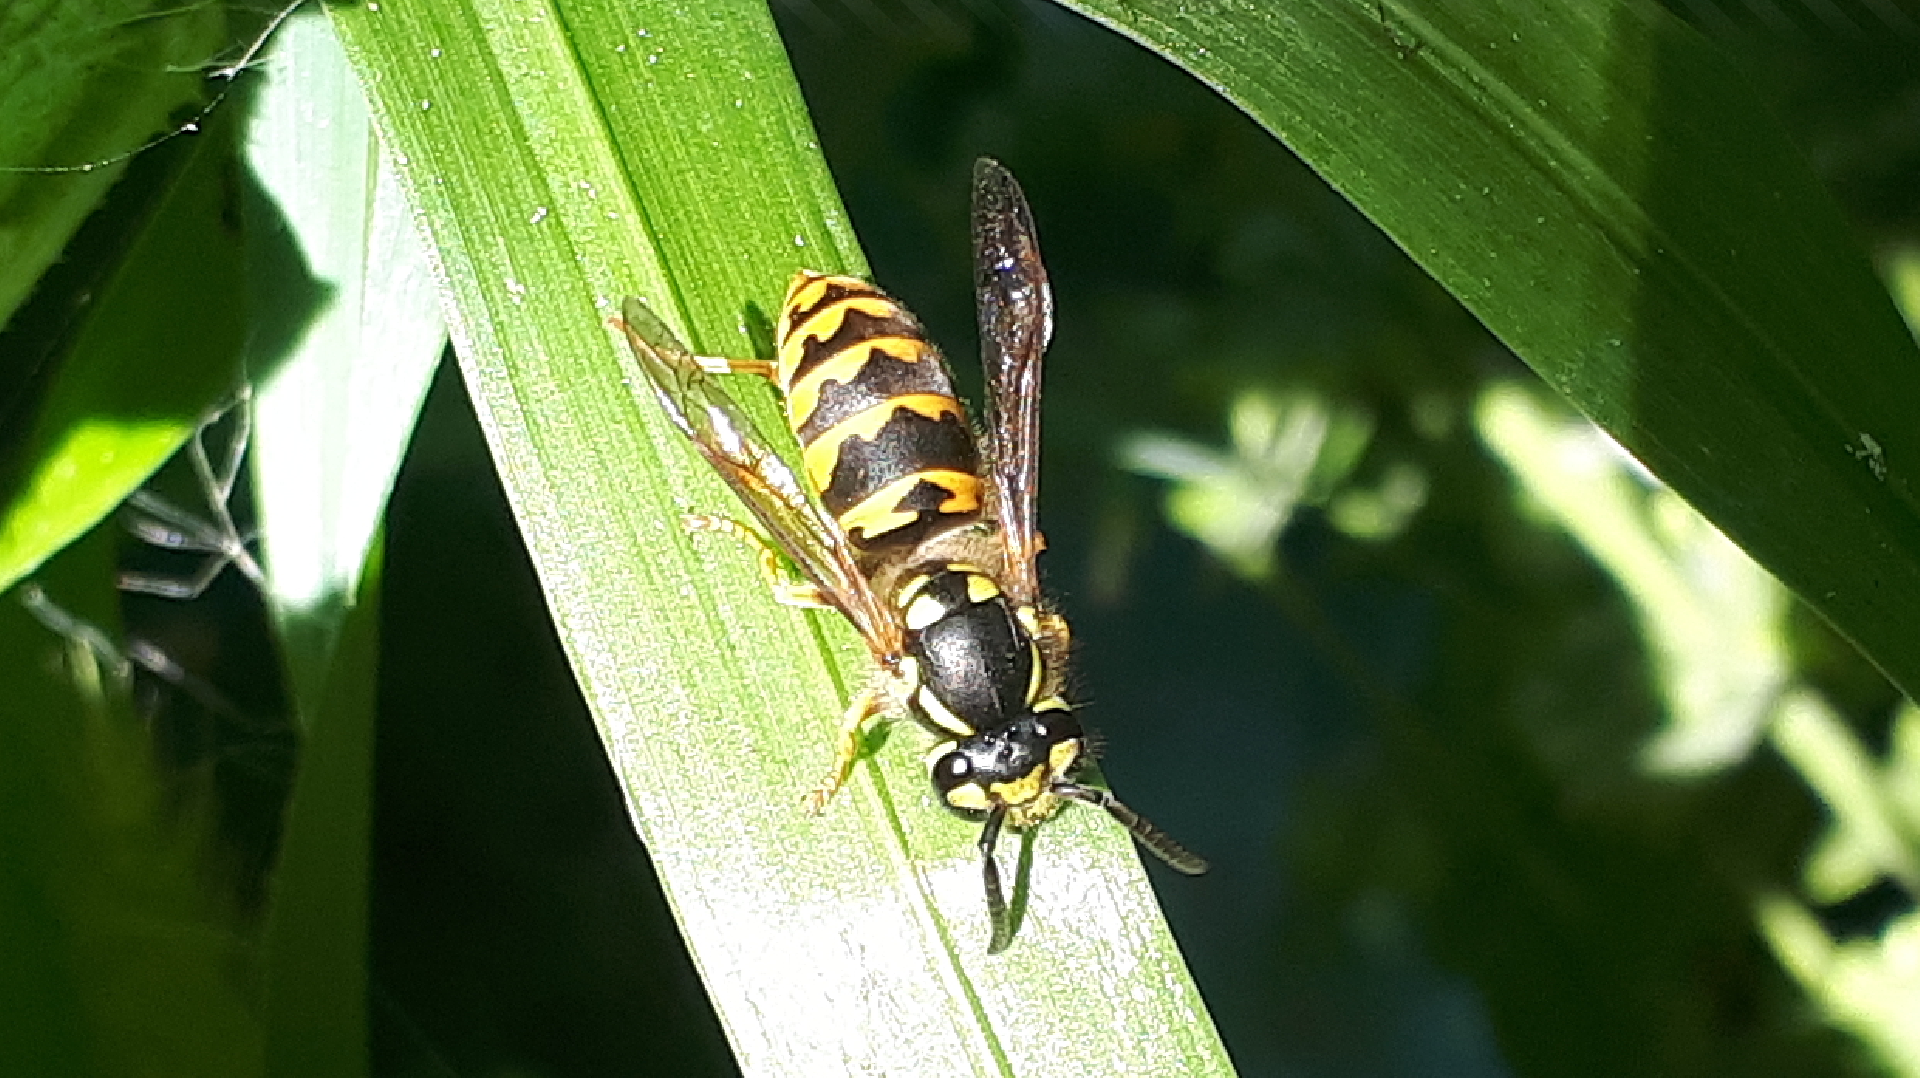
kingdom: Animalia
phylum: Arthropoda
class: Insecta
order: Hymenoptera
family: Vespidae
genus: Vespula
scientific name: Vespula germanica
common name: German wasp
